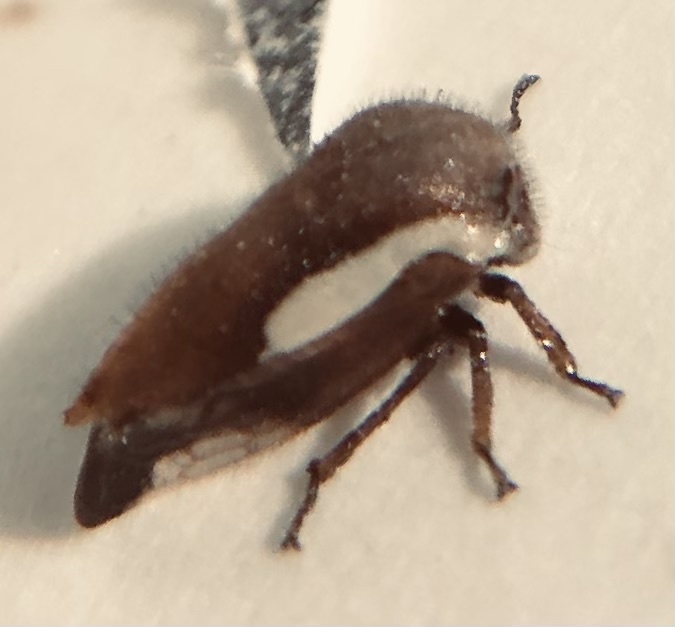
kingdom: Animalia
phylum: Arthropoda
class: Insecta
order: Hemiptera
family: Membracidae
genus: Ophiderma
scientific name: Ophiderma flavicephala
